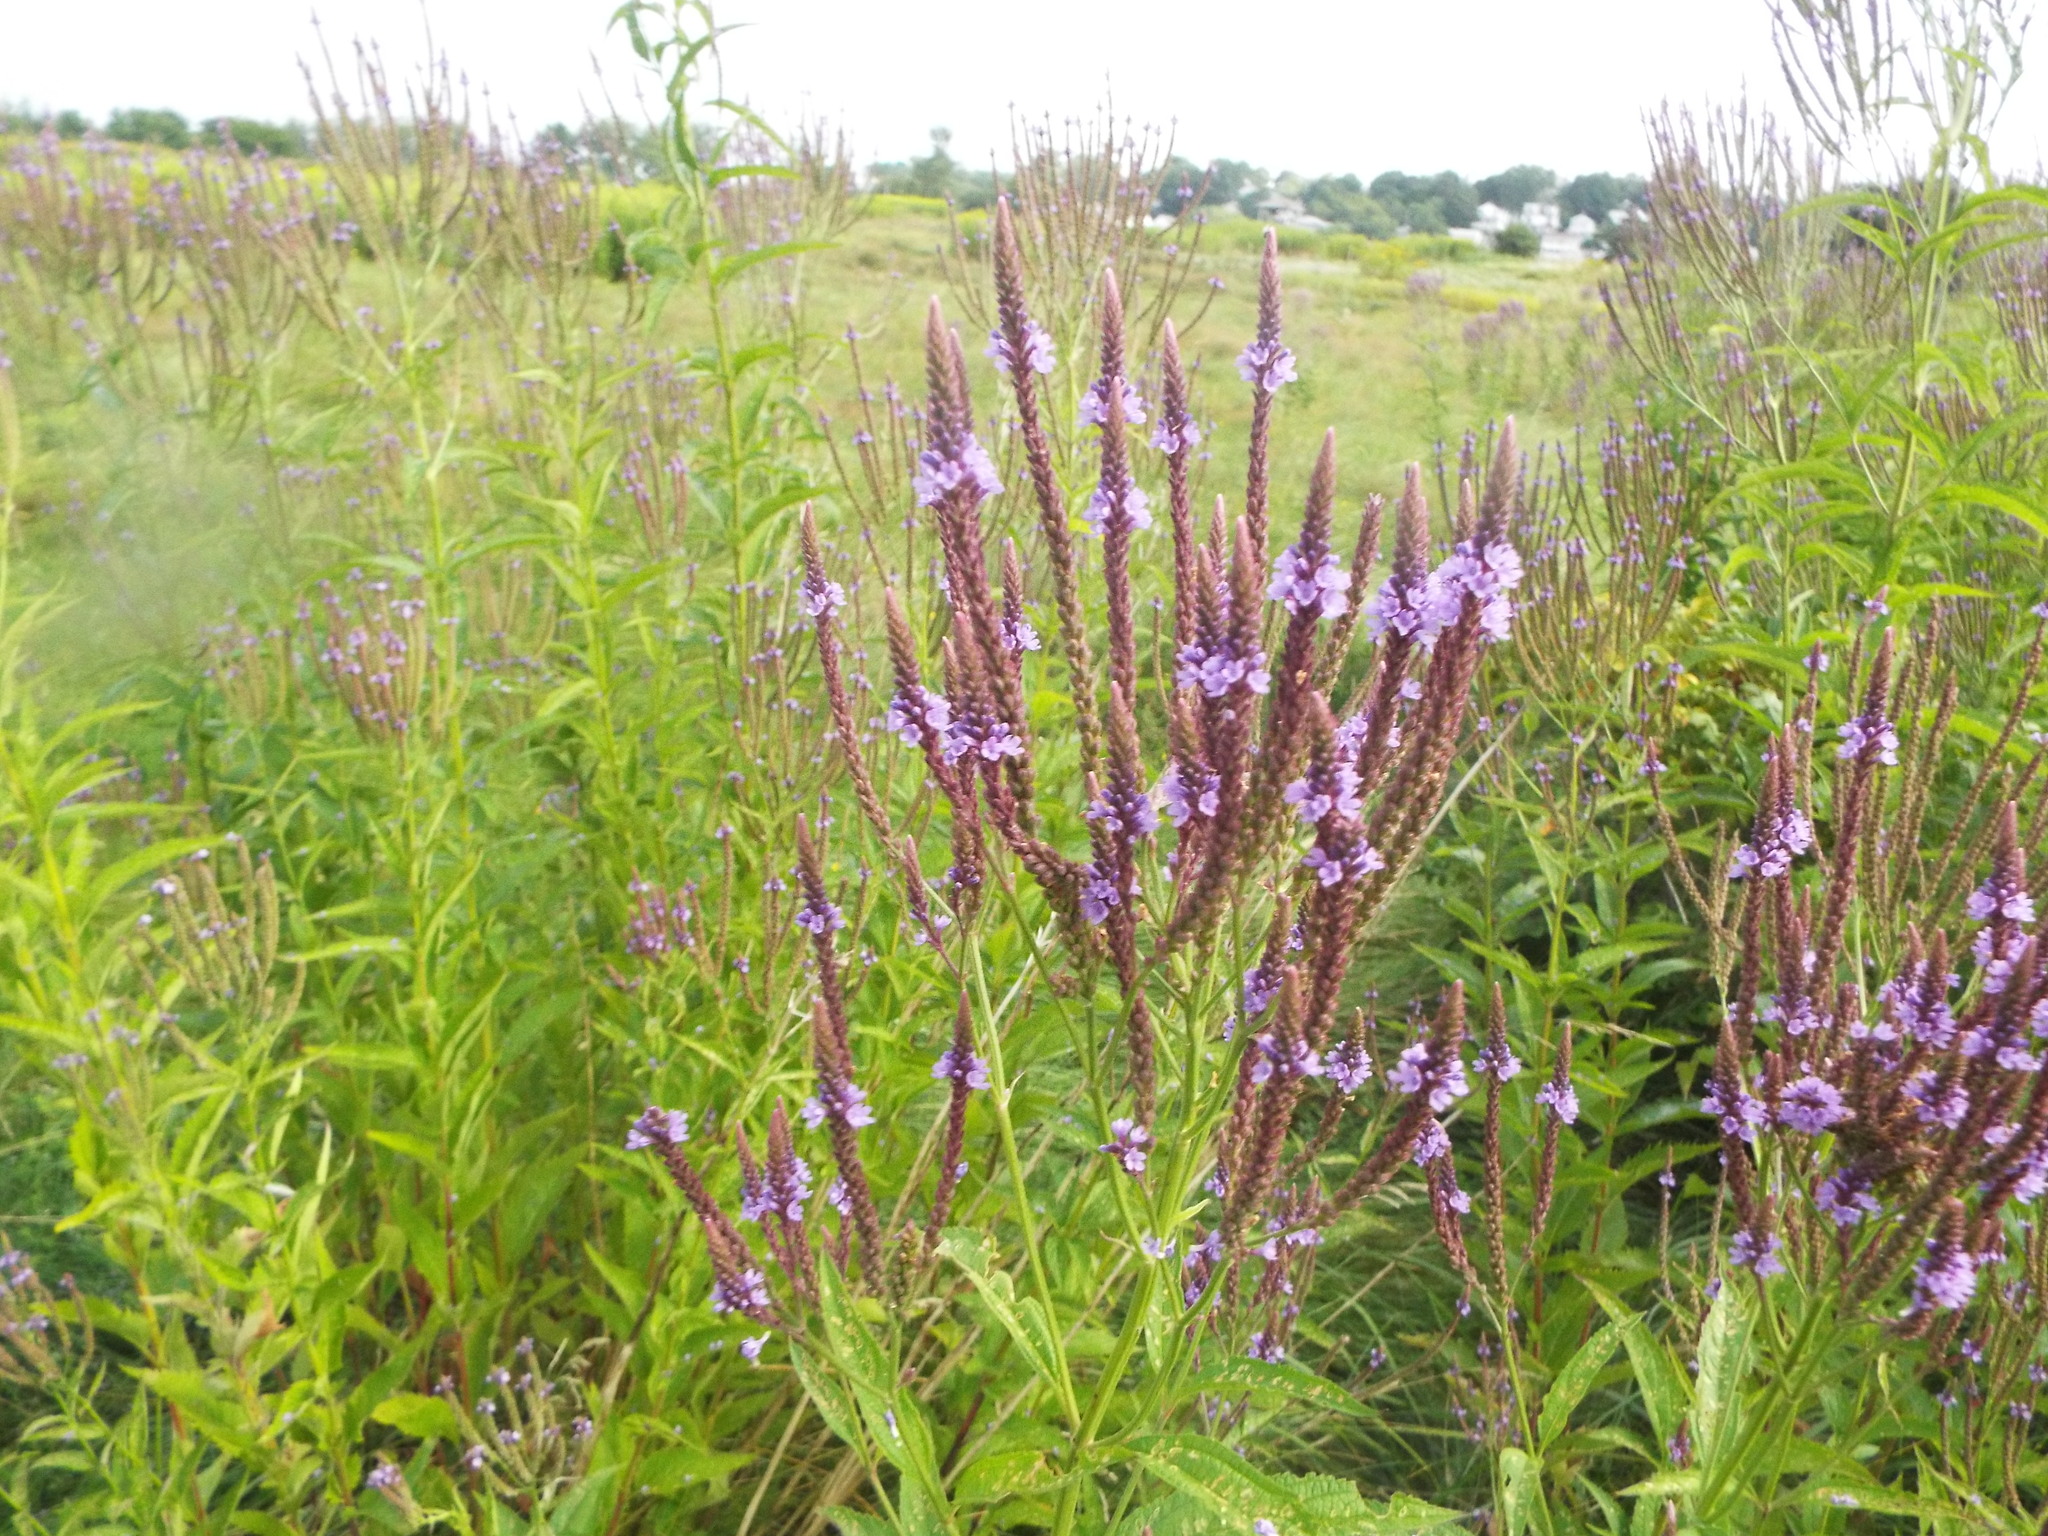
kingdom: Plantae
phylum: Tracheophyta
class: Magnoliopsida
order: Lamiales
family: Verbenaceae
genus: Verbena
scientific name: Verbena hastata
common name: American blue vervain
